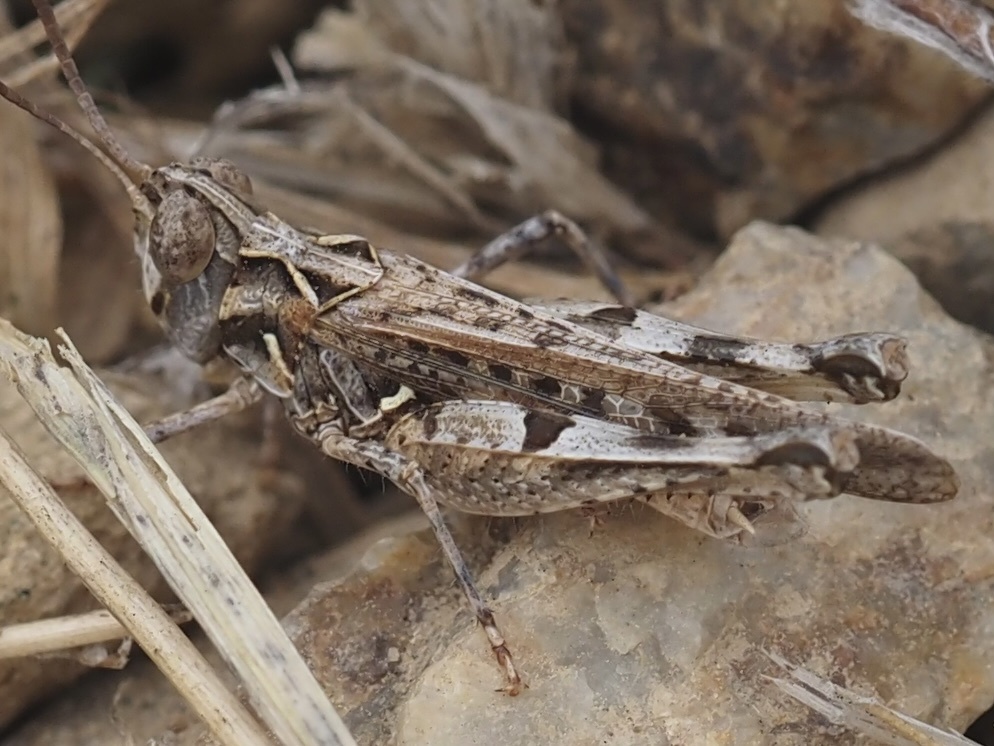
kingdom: Animalia
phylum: Arthropoda
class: Insecta
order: Orthoptera
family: Acrididae
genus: Psoloessa
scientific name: Psoloessa texana
